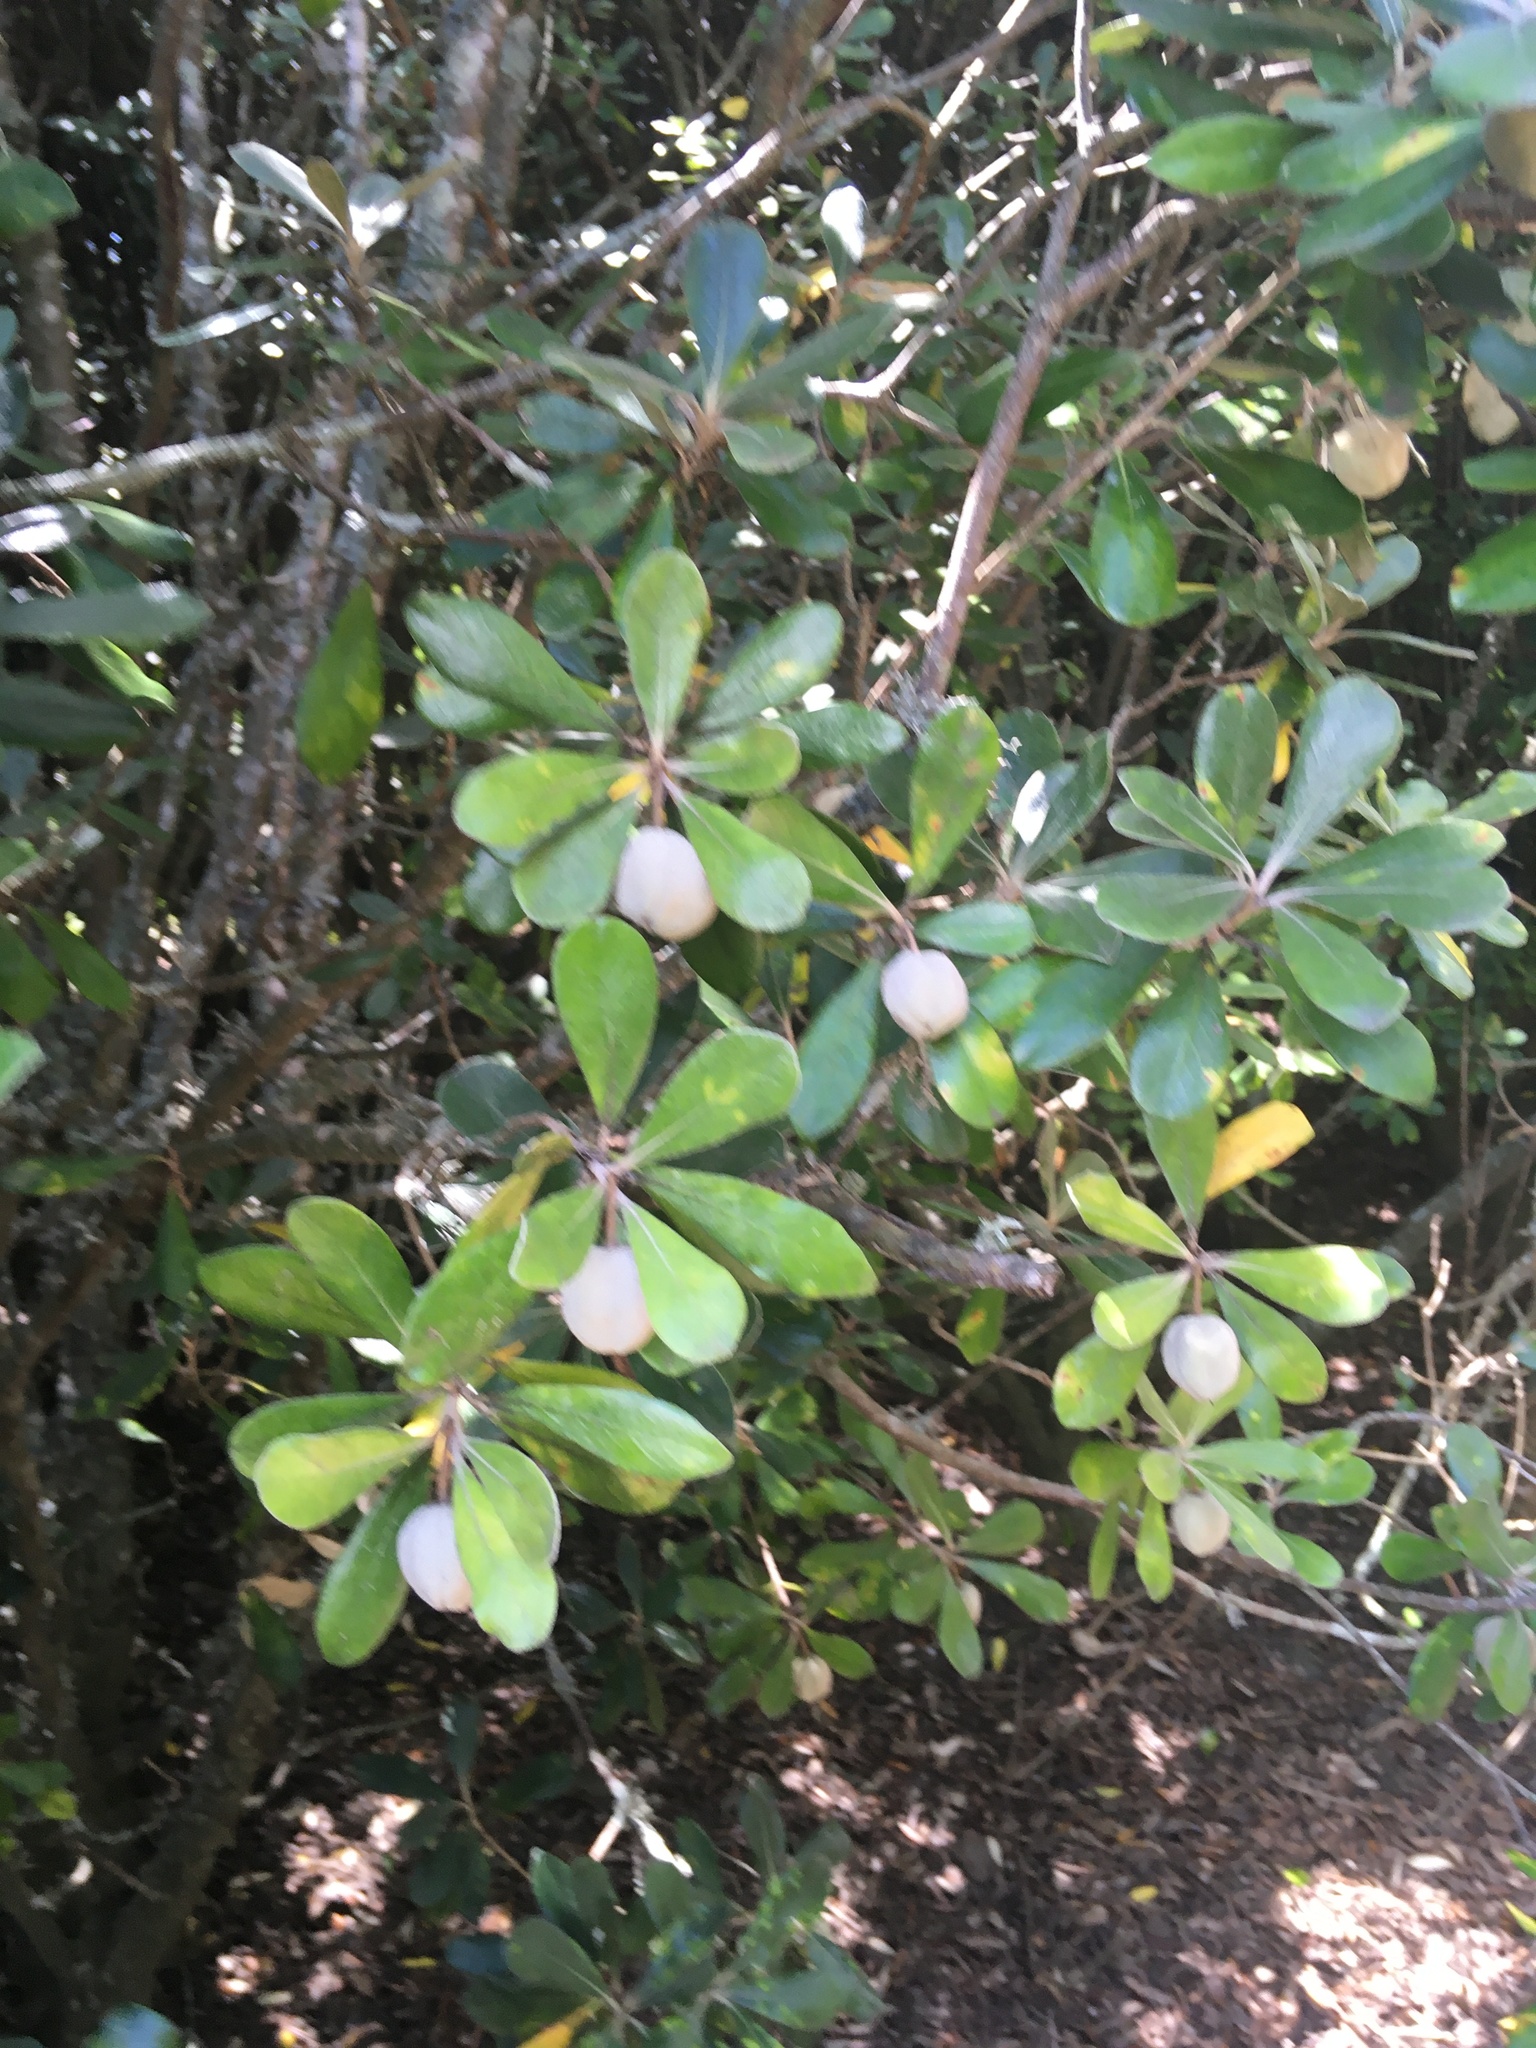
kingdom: Plantae
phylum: Tracheophyta
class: Magnoliopsida
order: Apiales
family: Pittosporaceae
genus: Pittosporum
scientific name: Pittosporum crassifolium
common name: Karo
